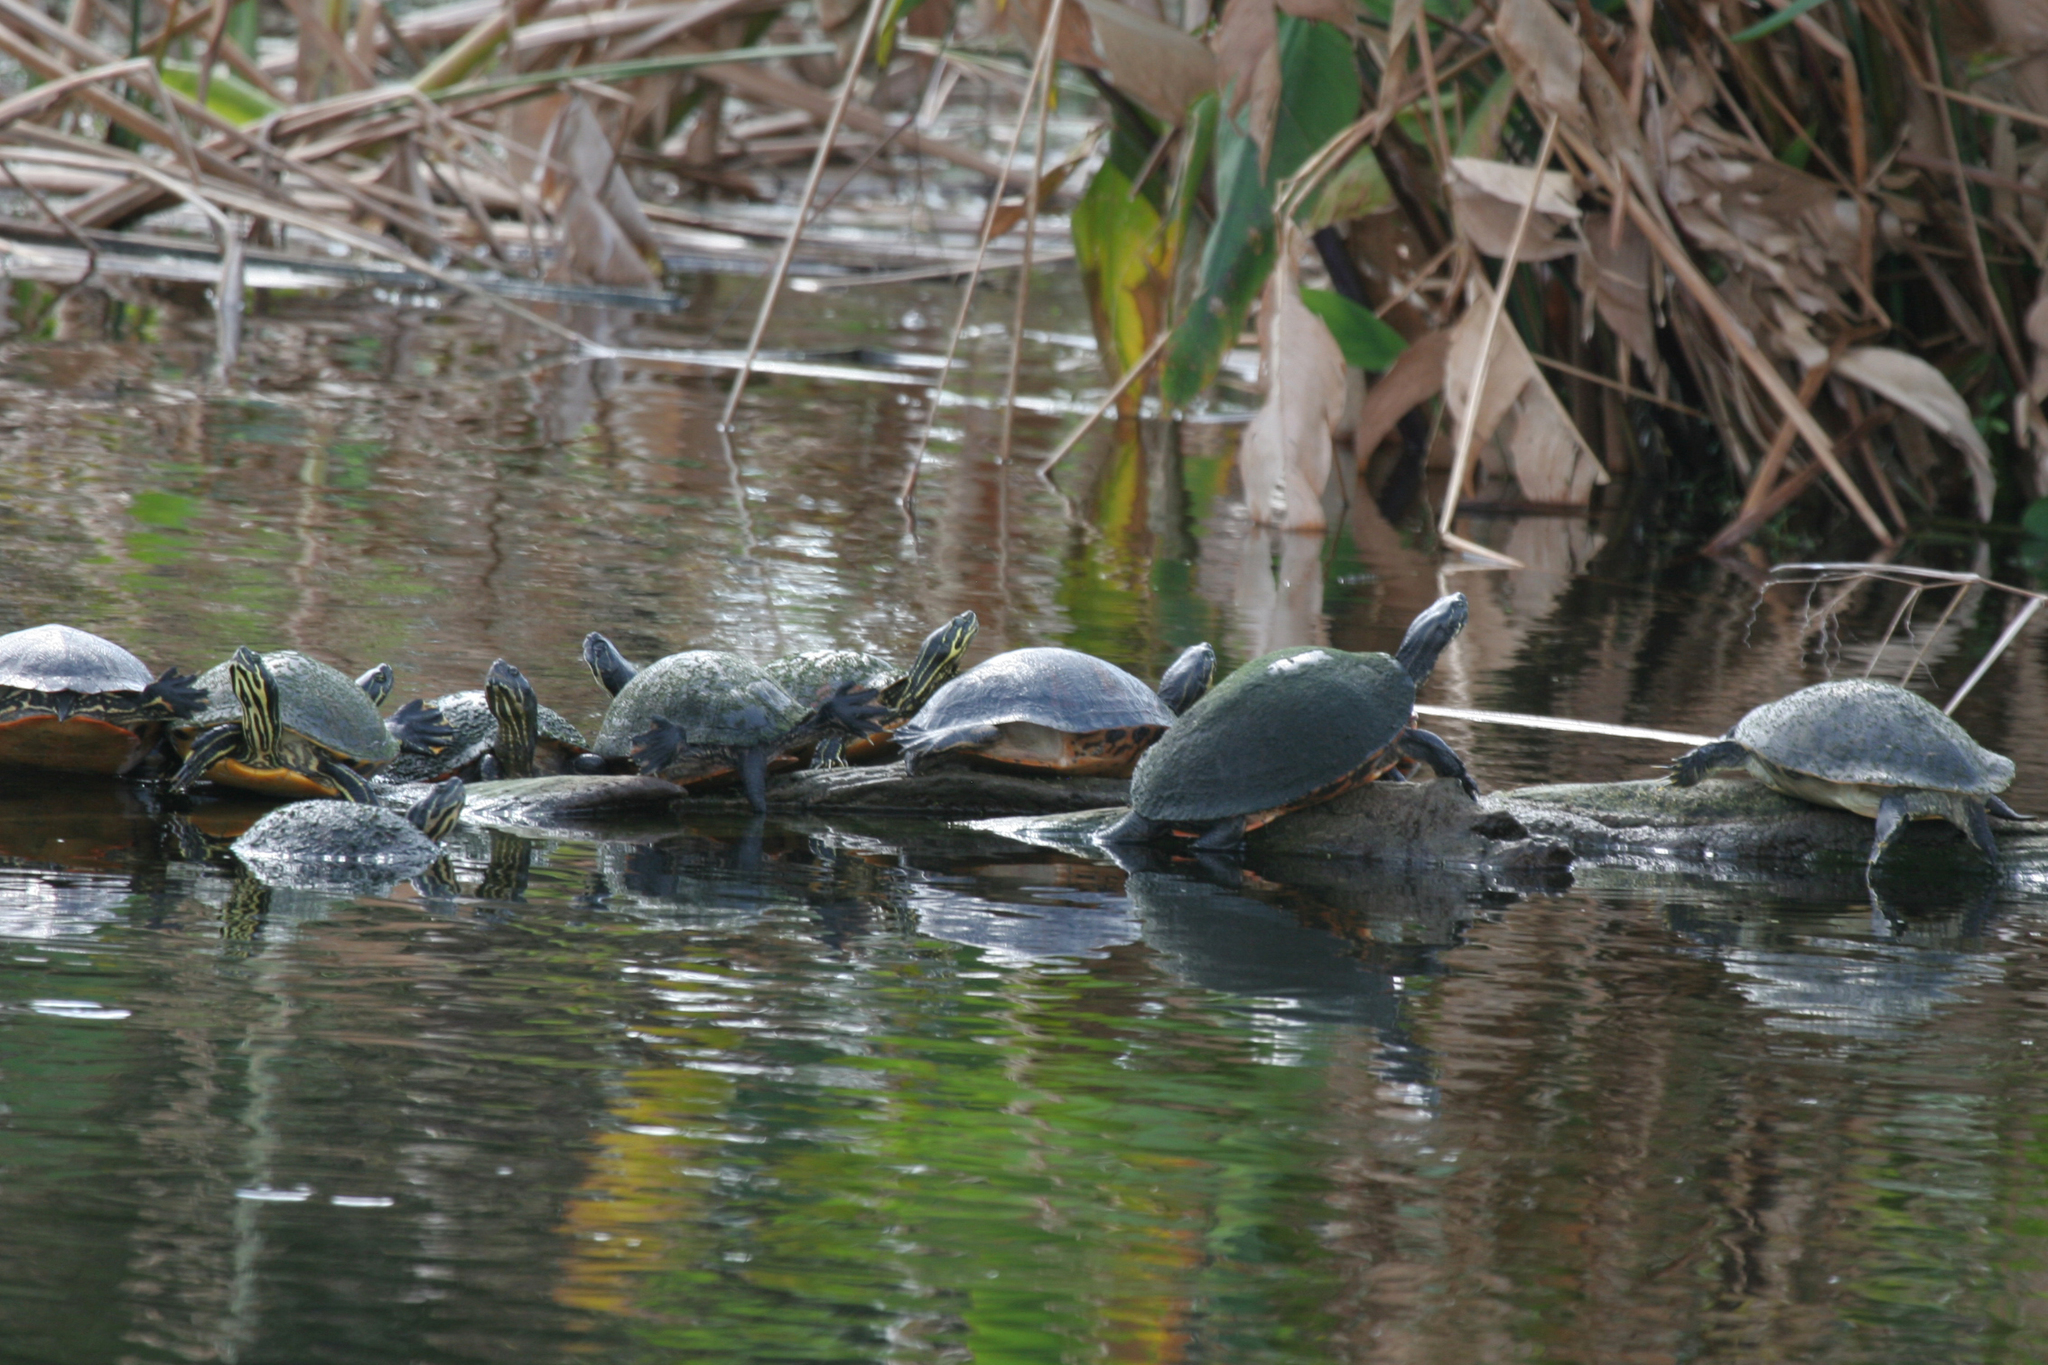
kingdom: Animalia
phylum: Chordata
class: Testudines
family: Emydidae
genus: Pseudemys
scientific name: Pseudemys nelsoni
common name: Florida red-bellied turtle
